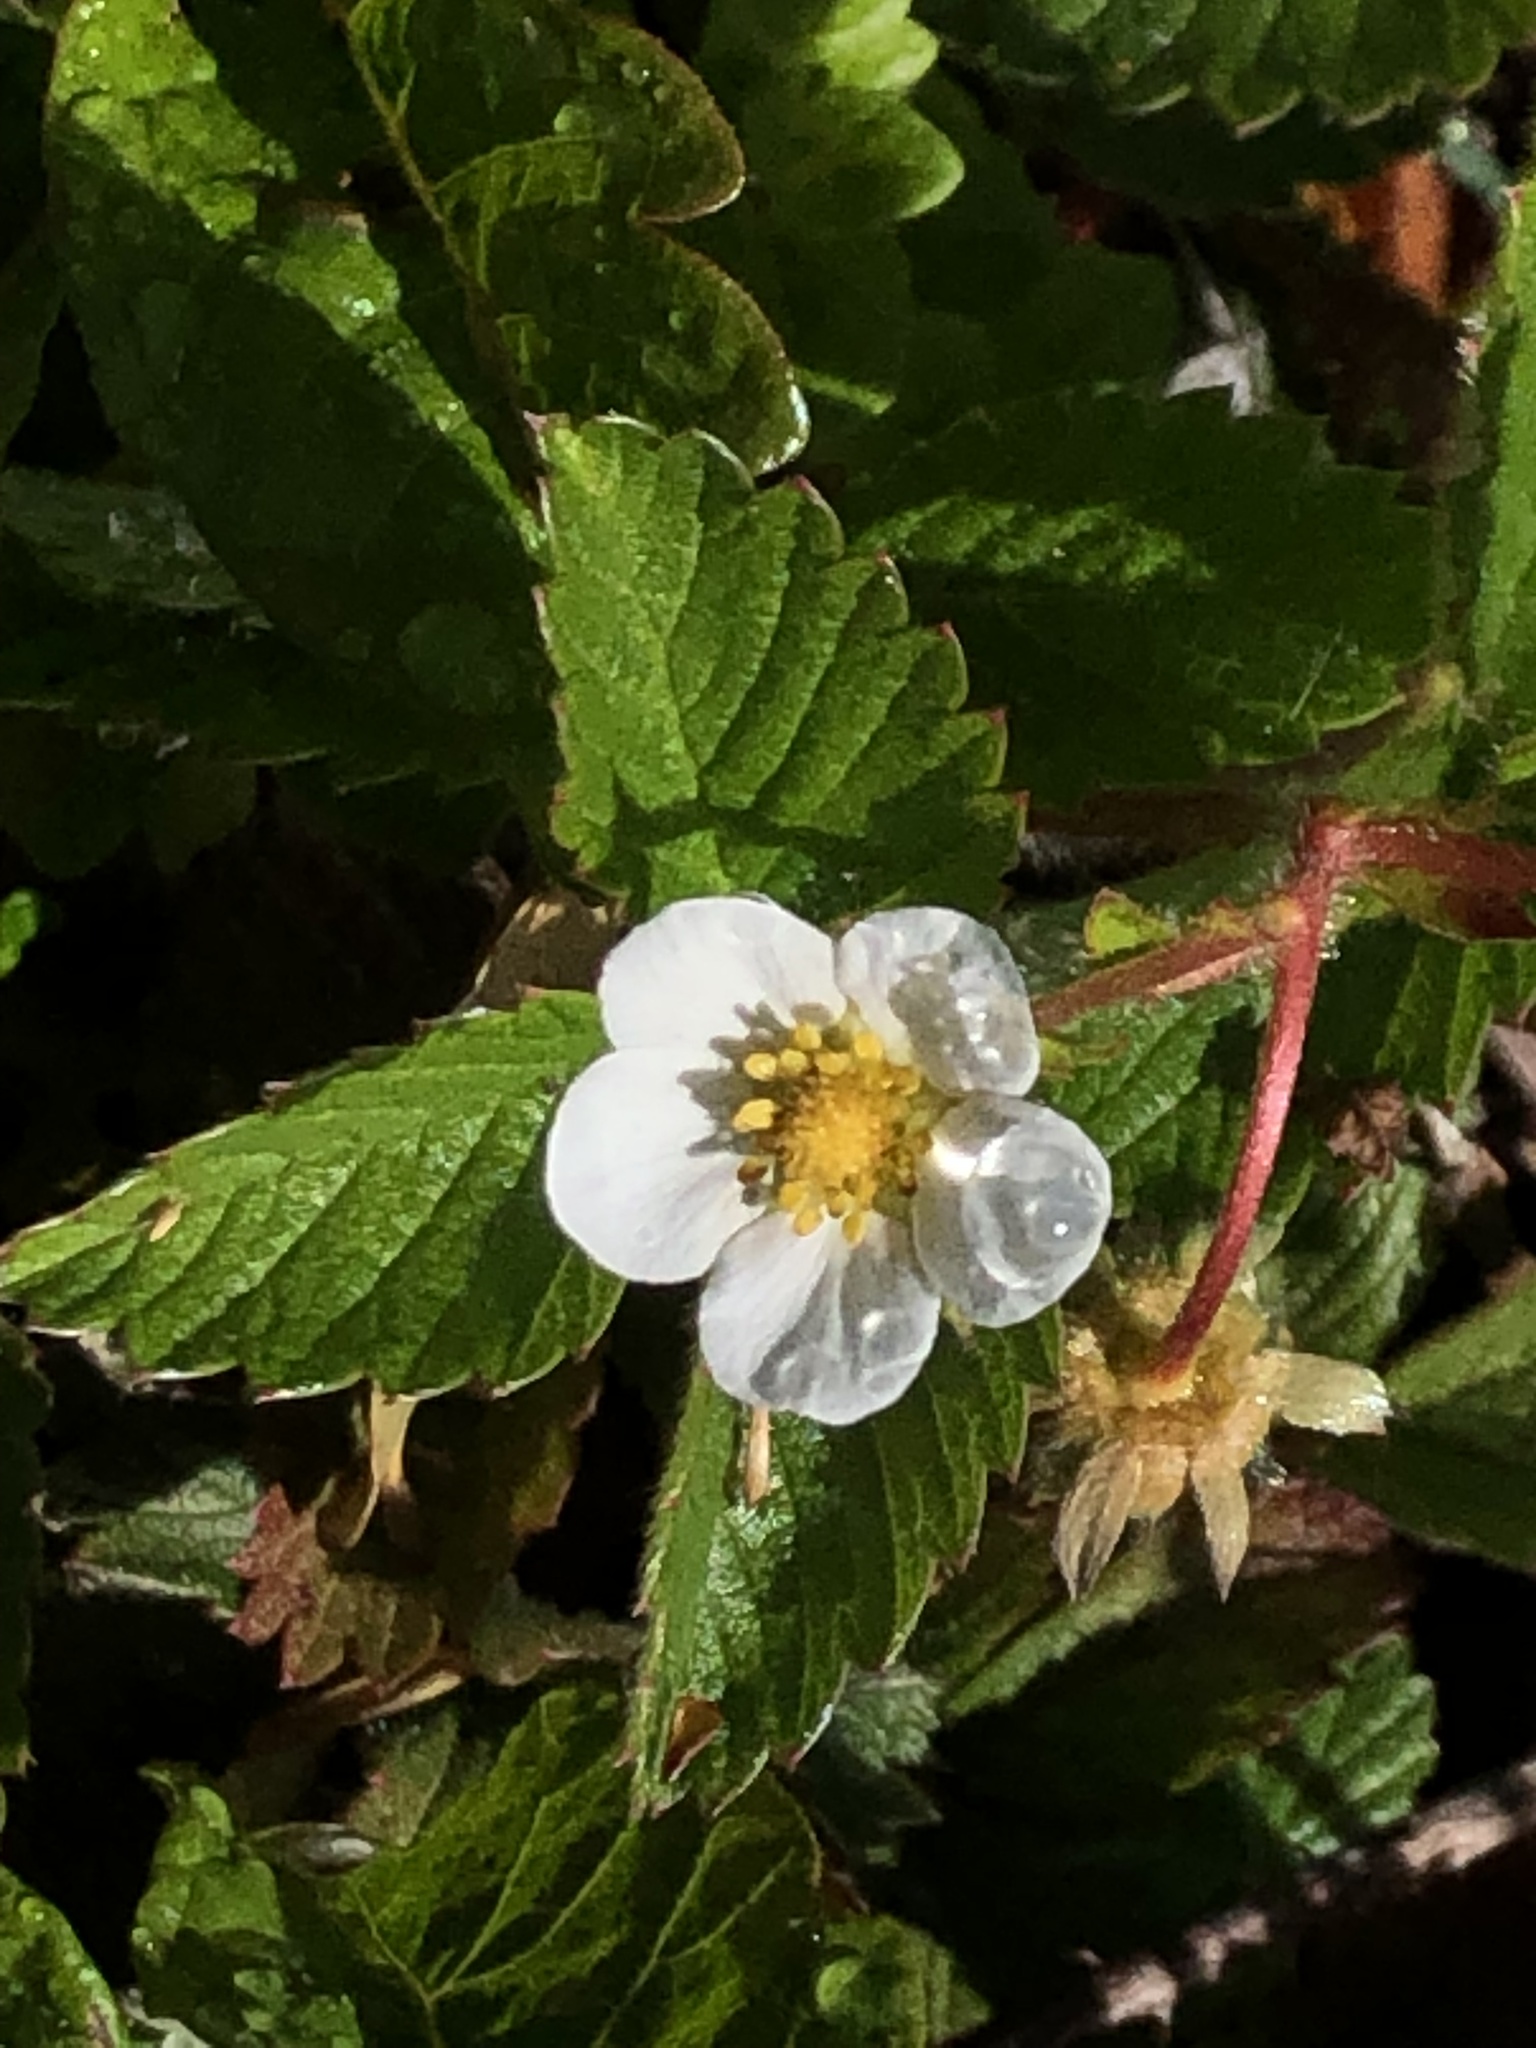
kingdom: Plantae
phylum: Tracheophyta
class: Magnoliopsida
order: Rosales
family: Rosaceae
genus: Fragaria
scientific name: Fragaria vesca
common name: Wild strawberry
